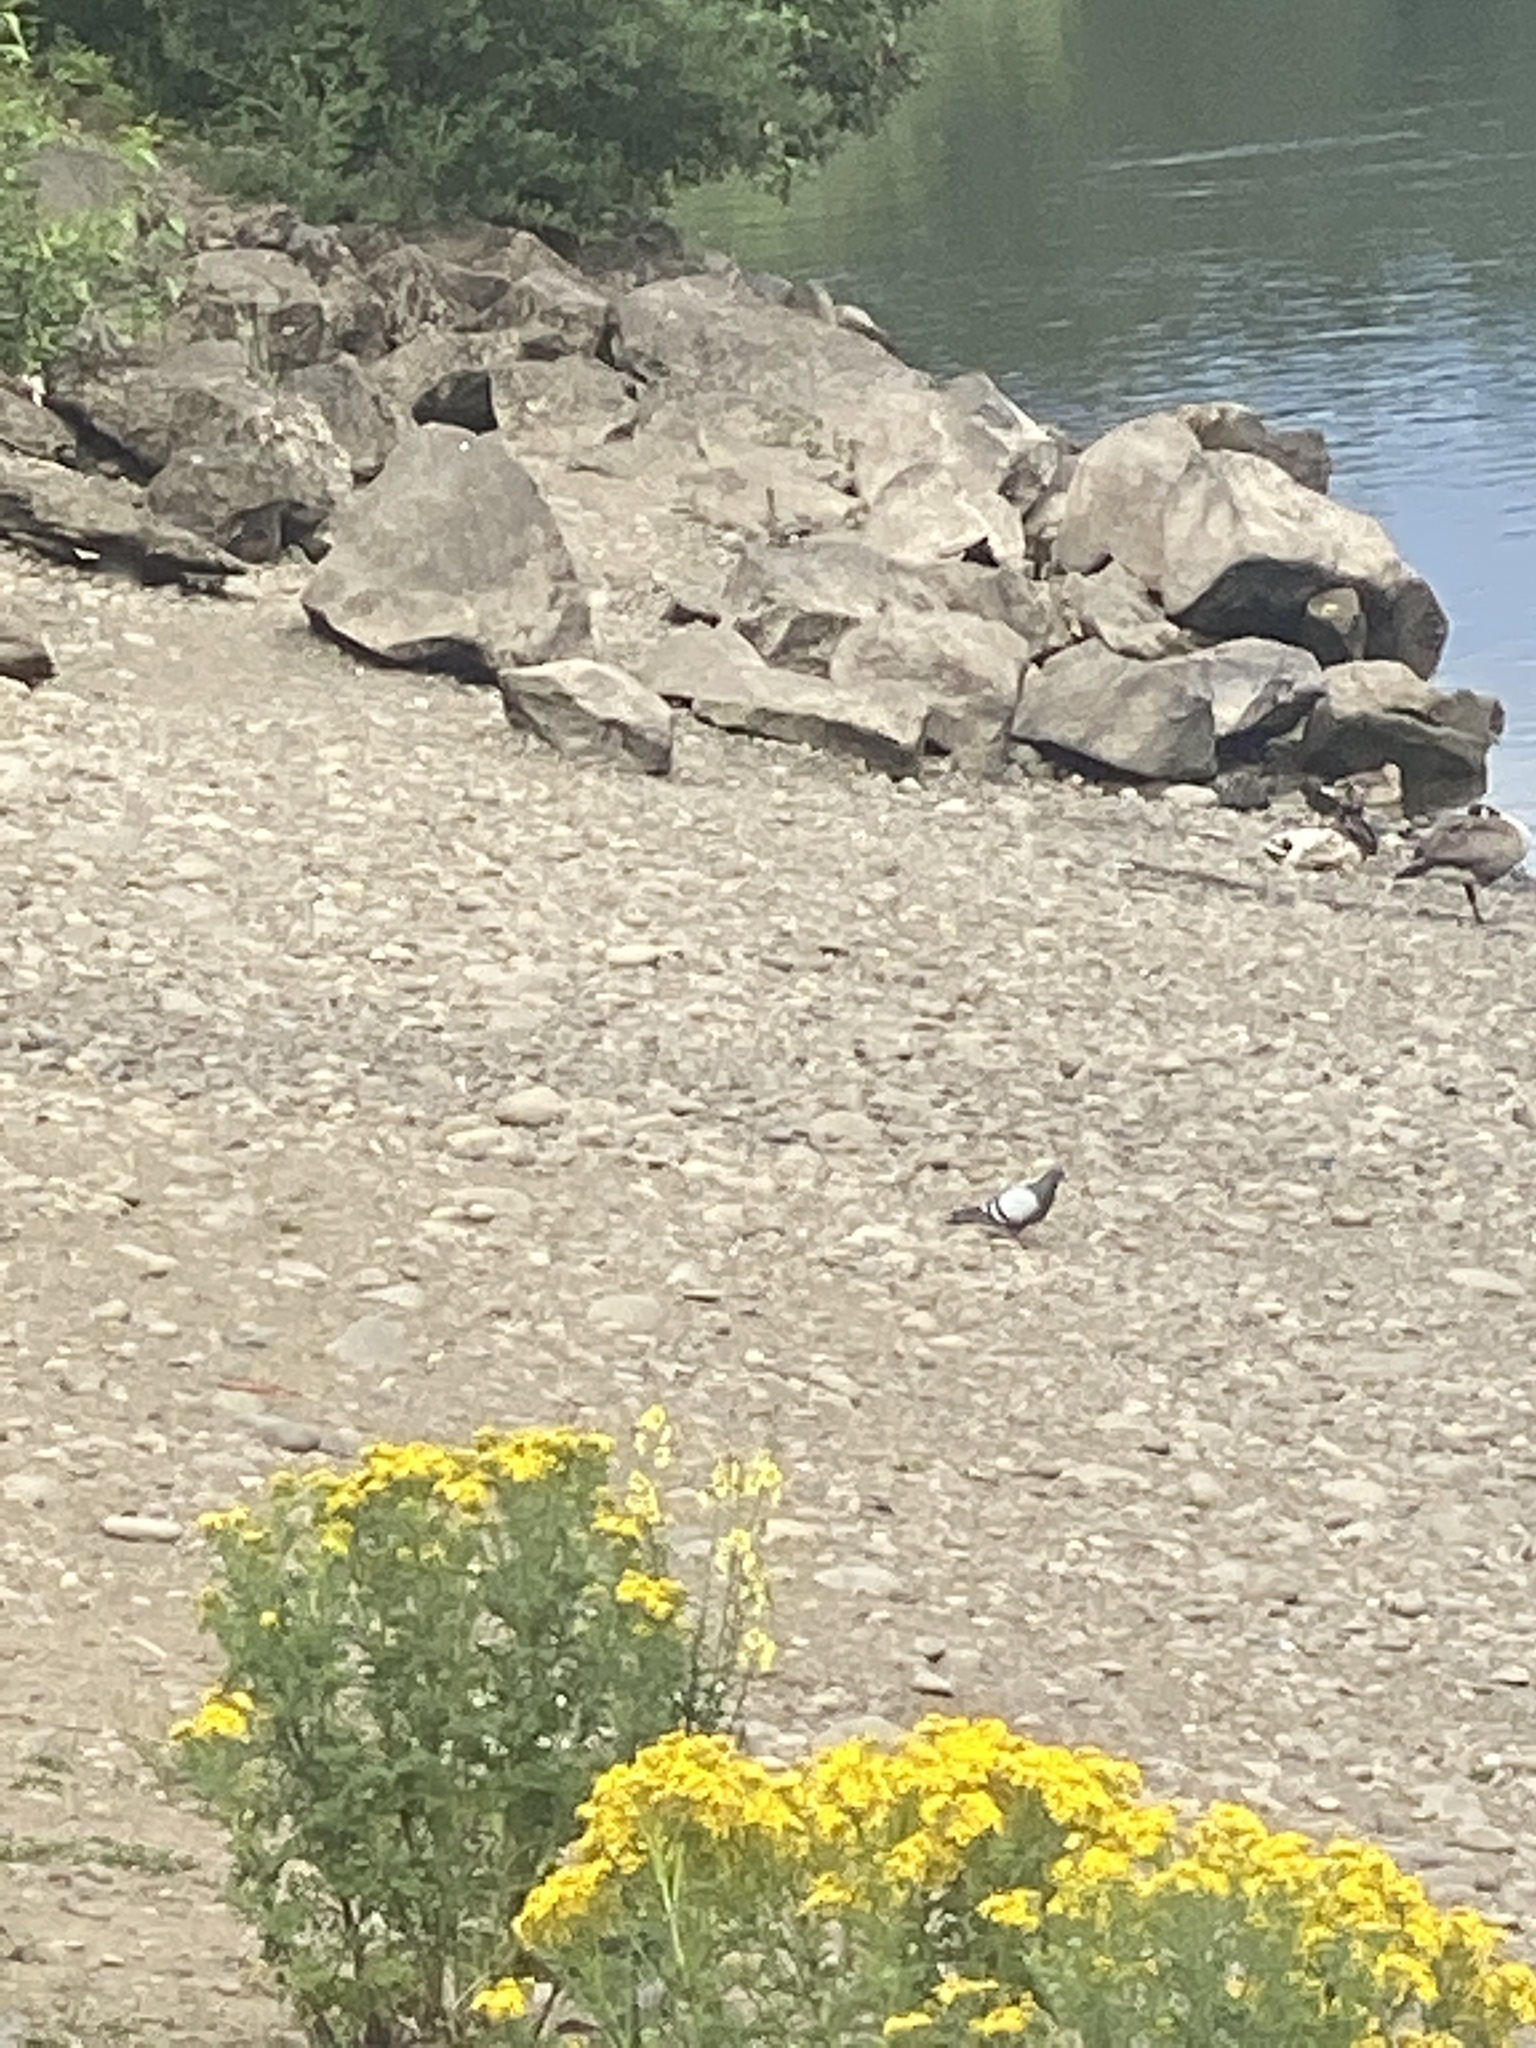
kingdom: Animalia
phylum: Chordata
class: Aves
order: Columbiformes
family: Columbidae
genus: Columba
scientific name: Columba livia
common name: Rock pigeon
